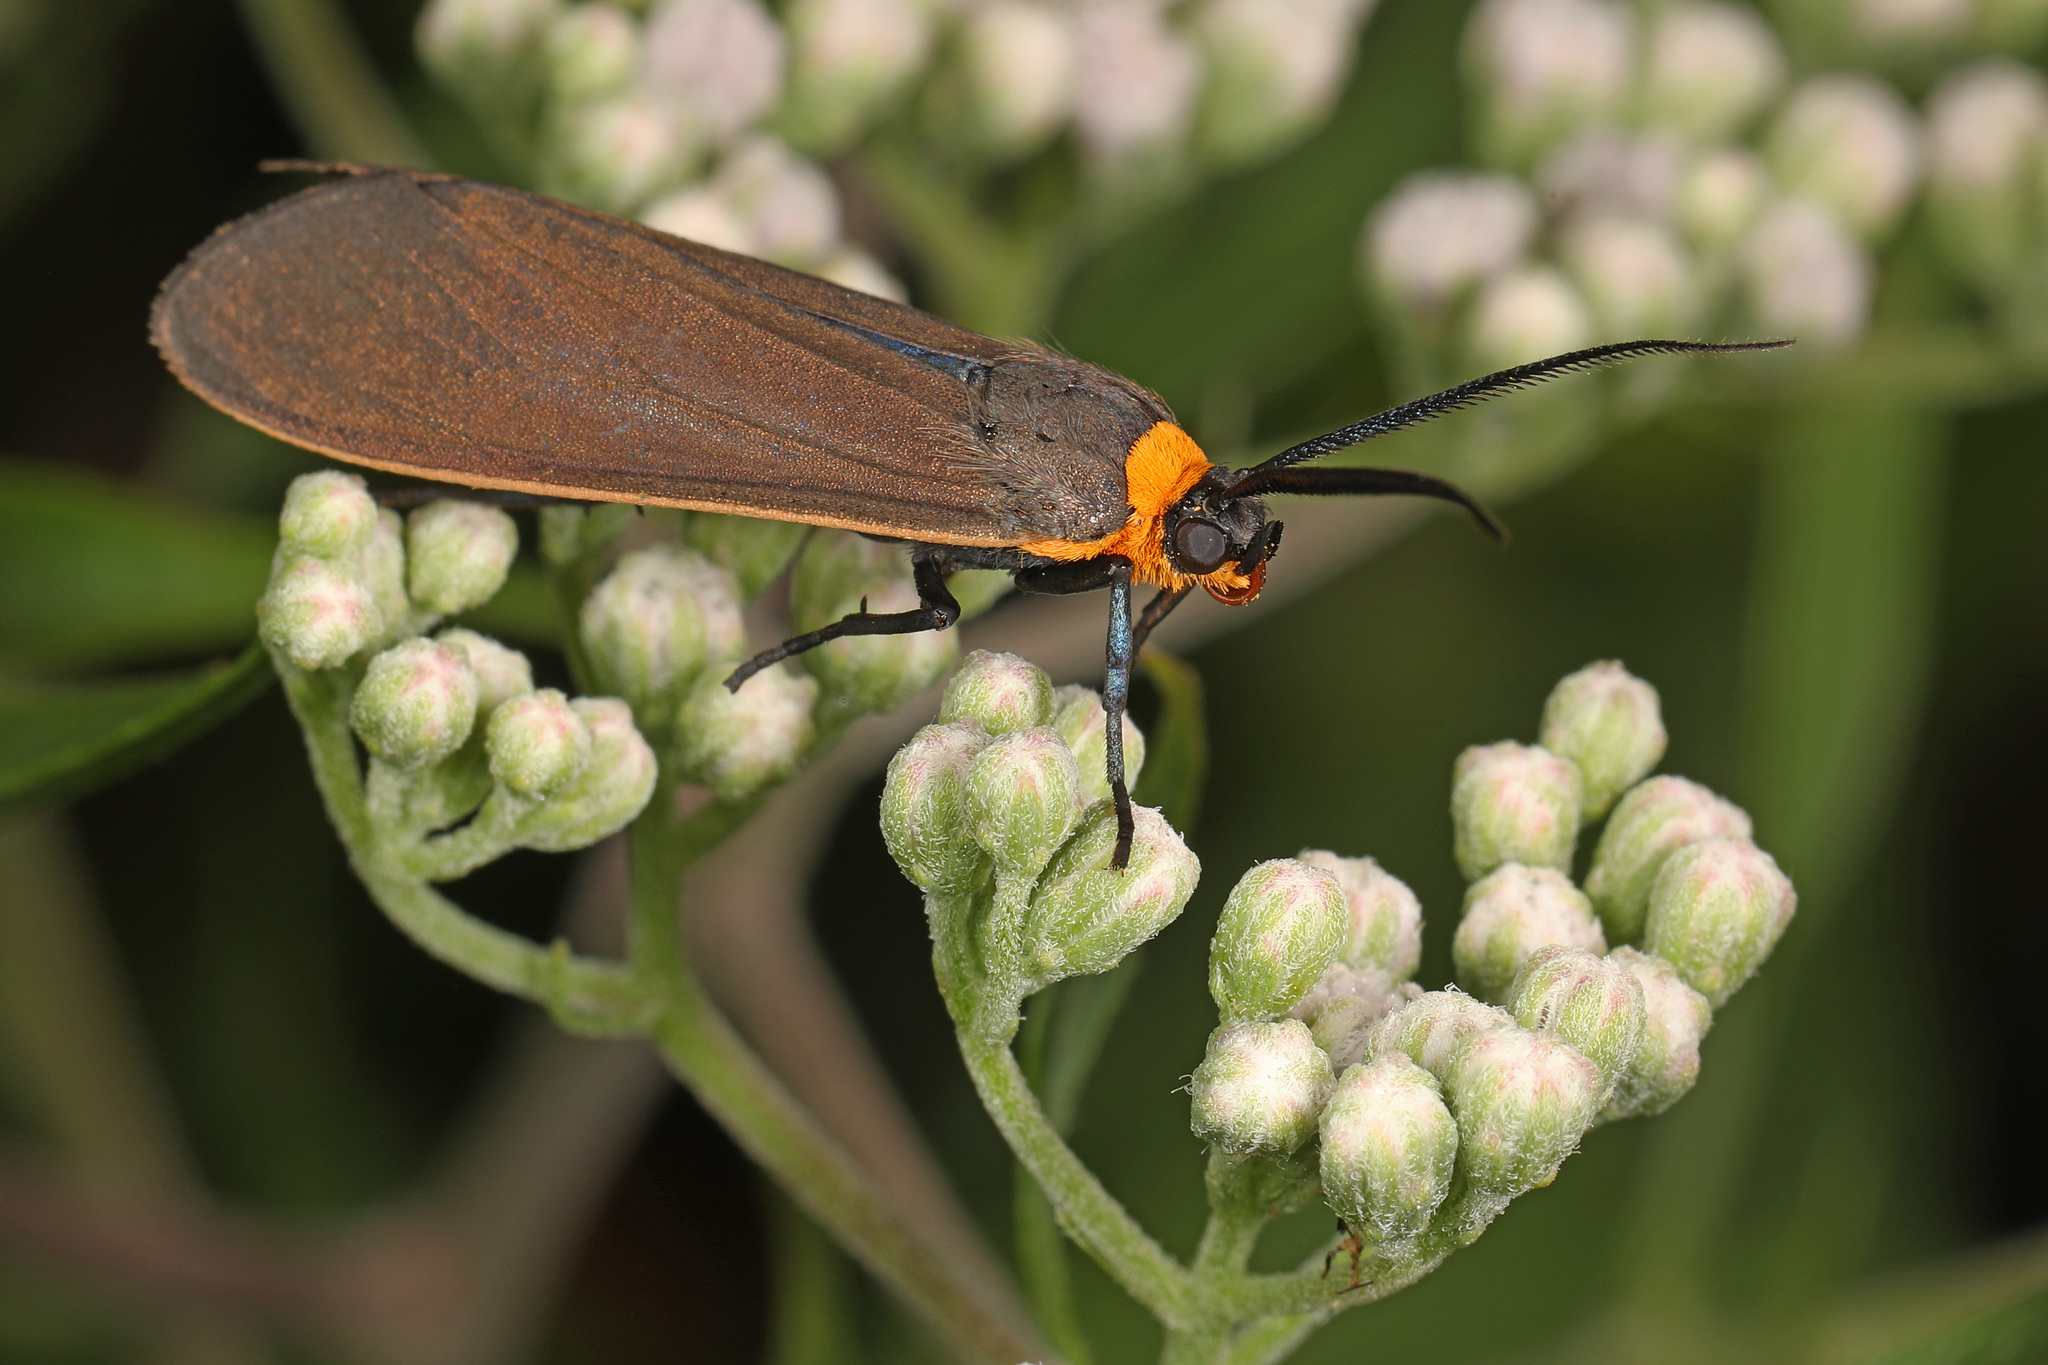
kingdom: Animalia
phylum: Arthropoda
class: Insecta
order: Lepidoptera
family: Erebidae
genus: Cisseps
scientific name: Cisseps fulvicollis
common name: Yellow-collared scape moth
